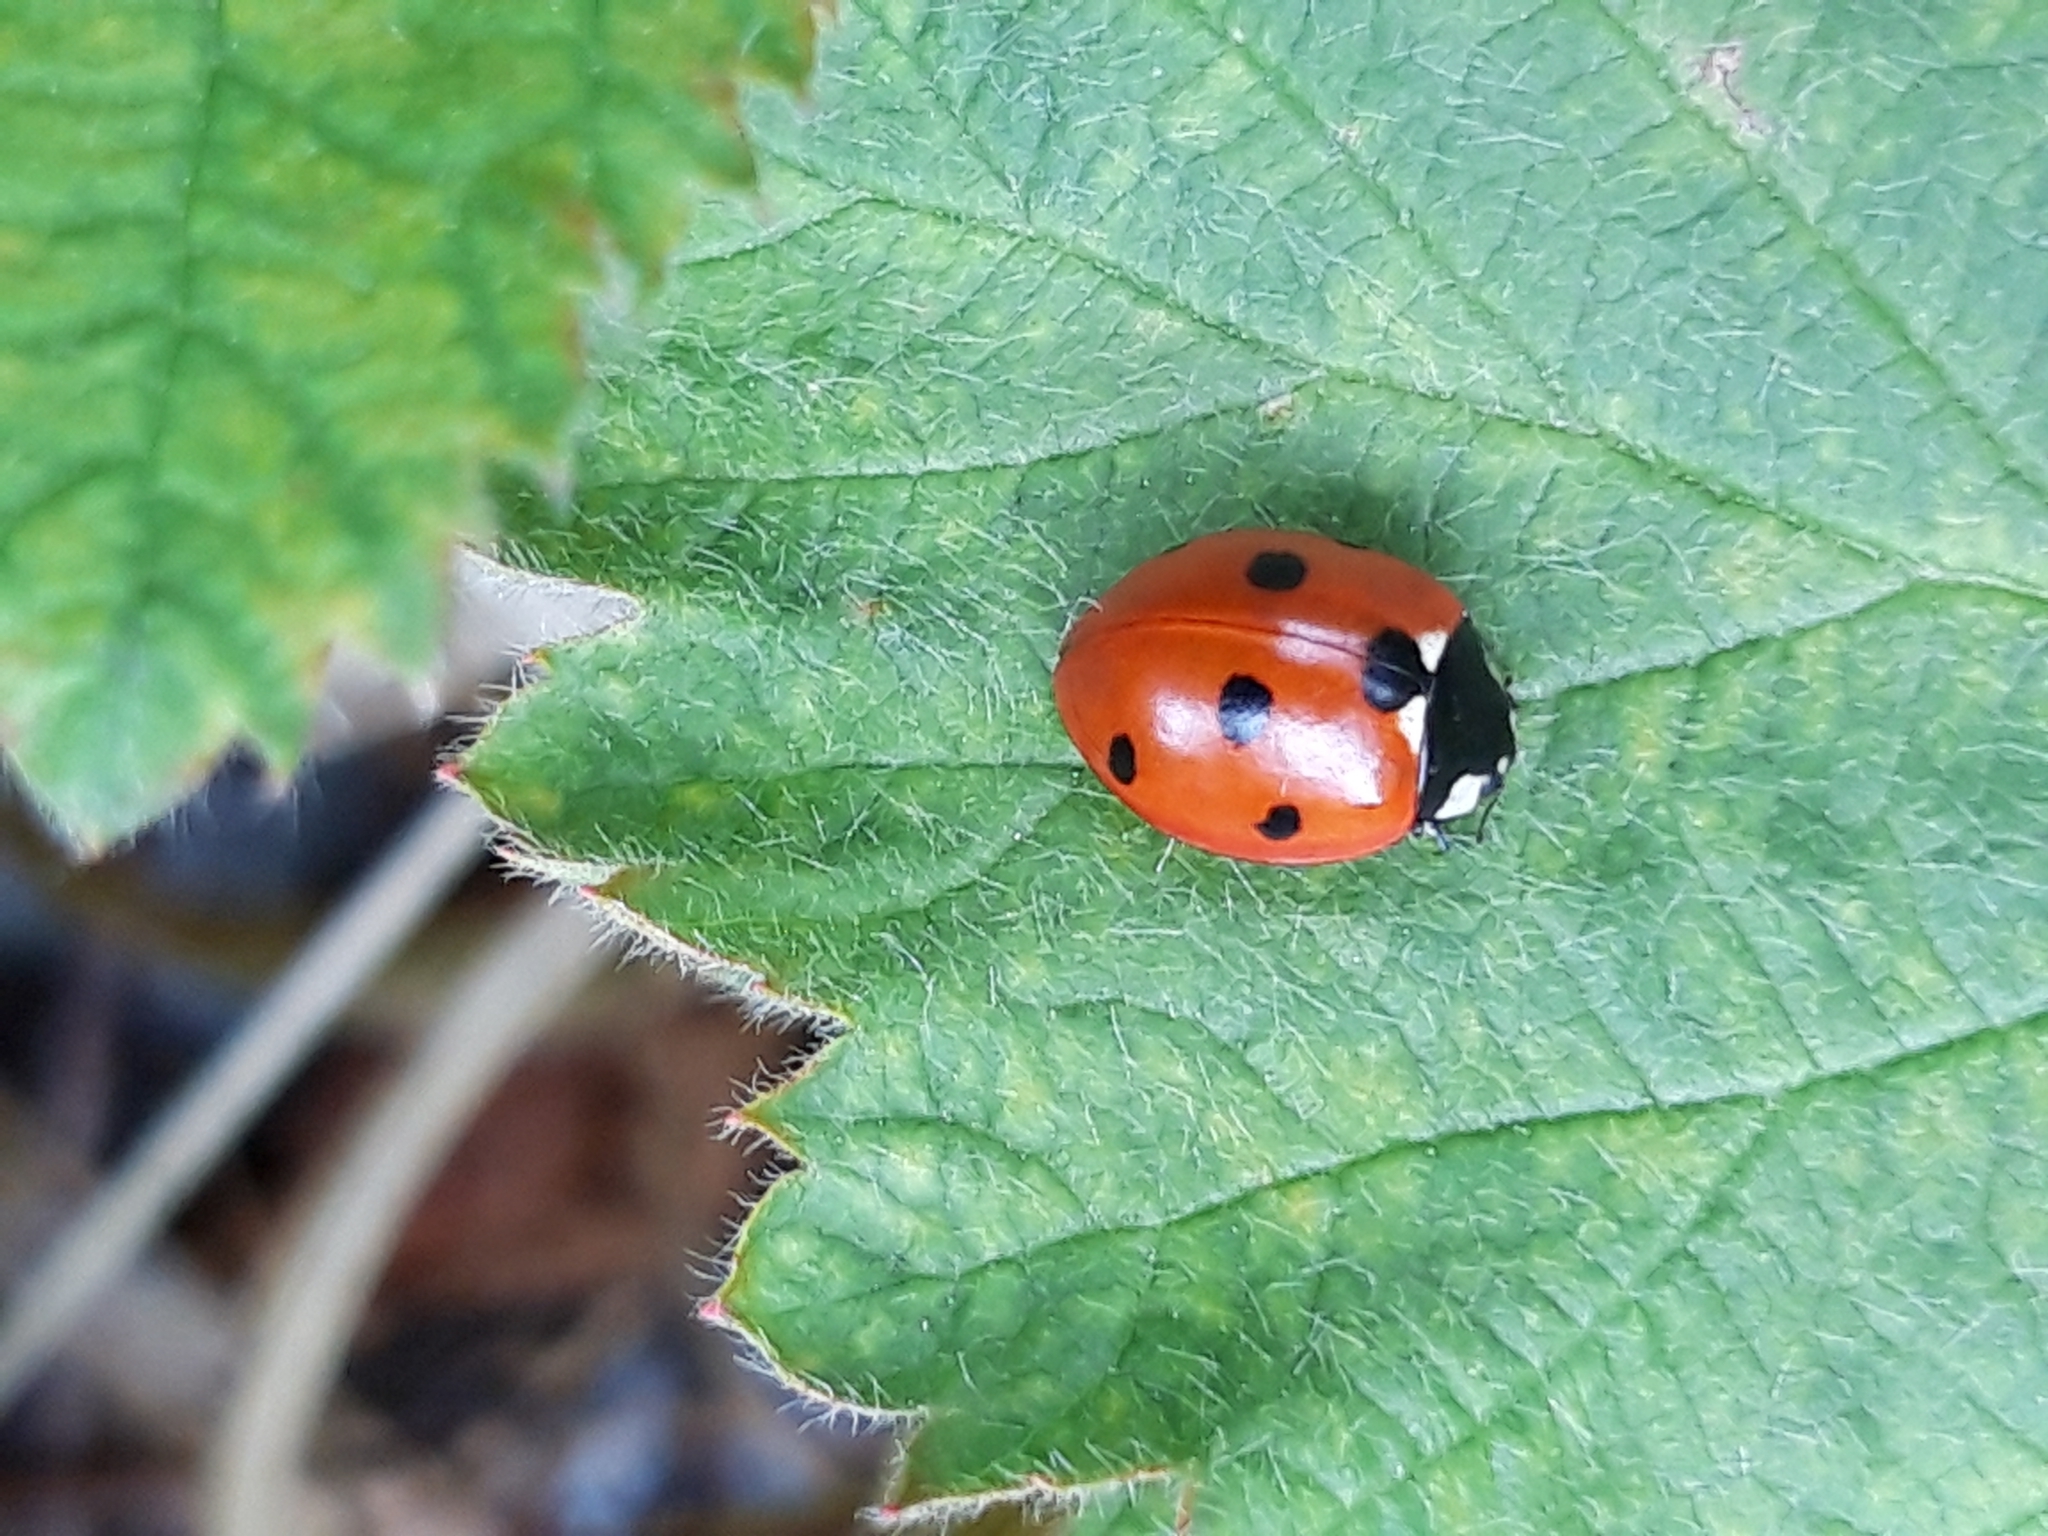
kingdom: Animalia
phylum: Arthropoda
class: Insecta
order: Coleoptera
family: Coccinellidae
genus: Coccinella
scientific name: Coccinella septempunctata
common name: Sevenspotted lady beetle
